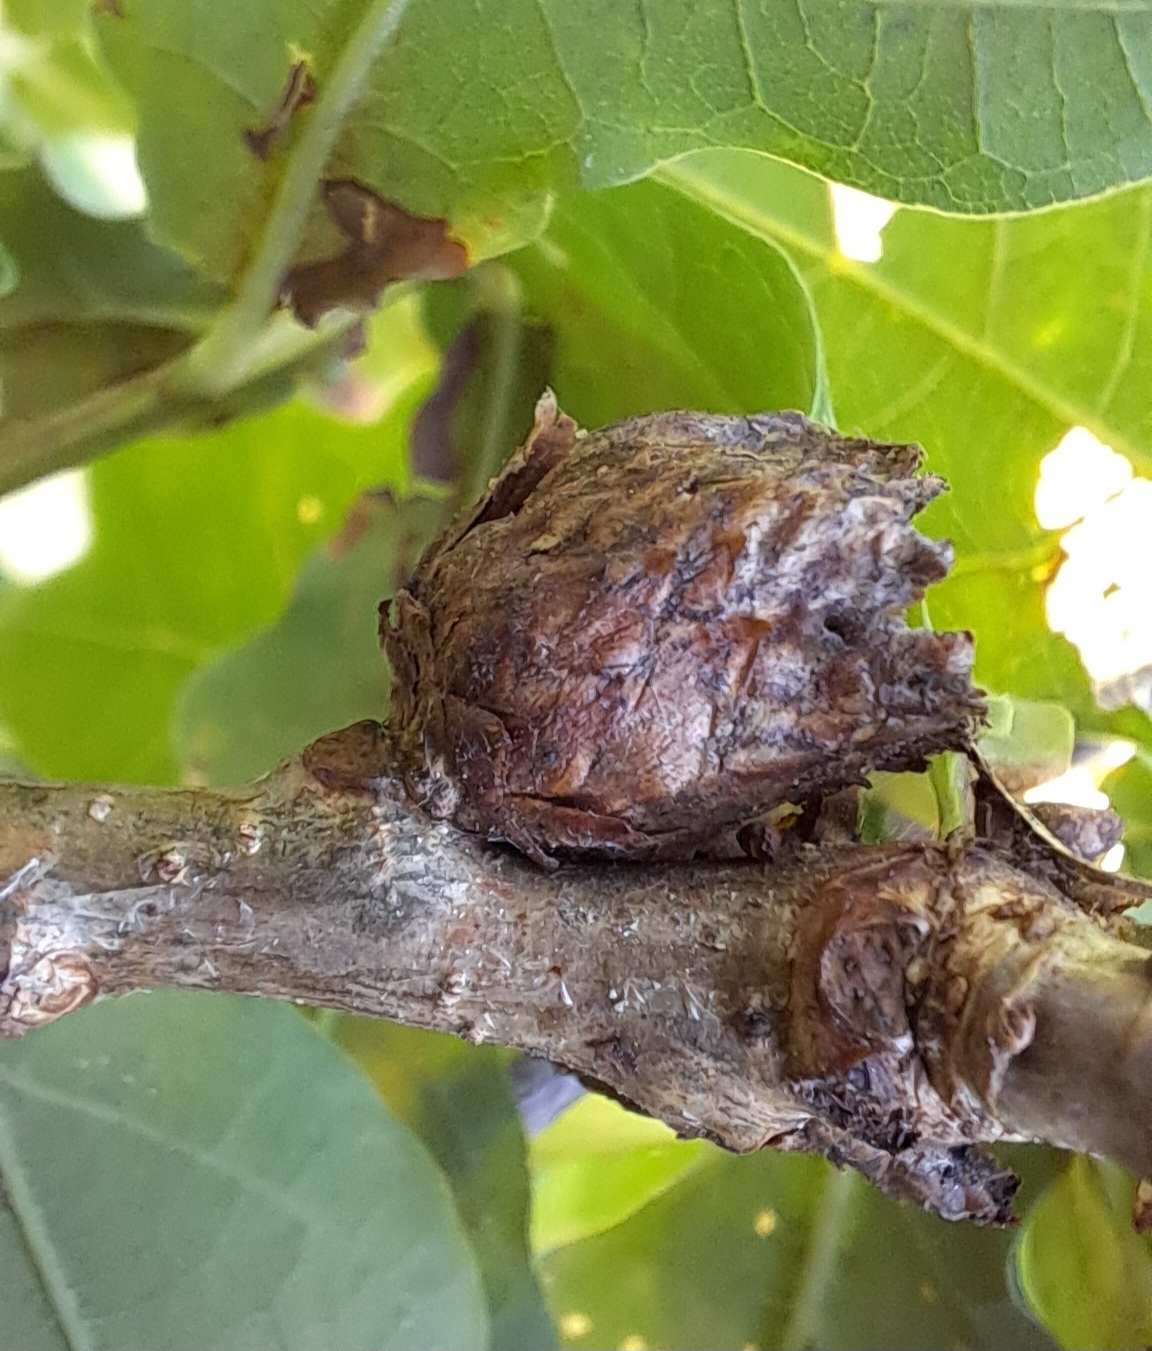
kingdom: Animalia
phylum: Arthropoda
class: Insecta
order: Hymenoptera
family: Cynipidae
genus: Andricus
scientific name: Andricus foecundatrix
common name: Artichoke gall
